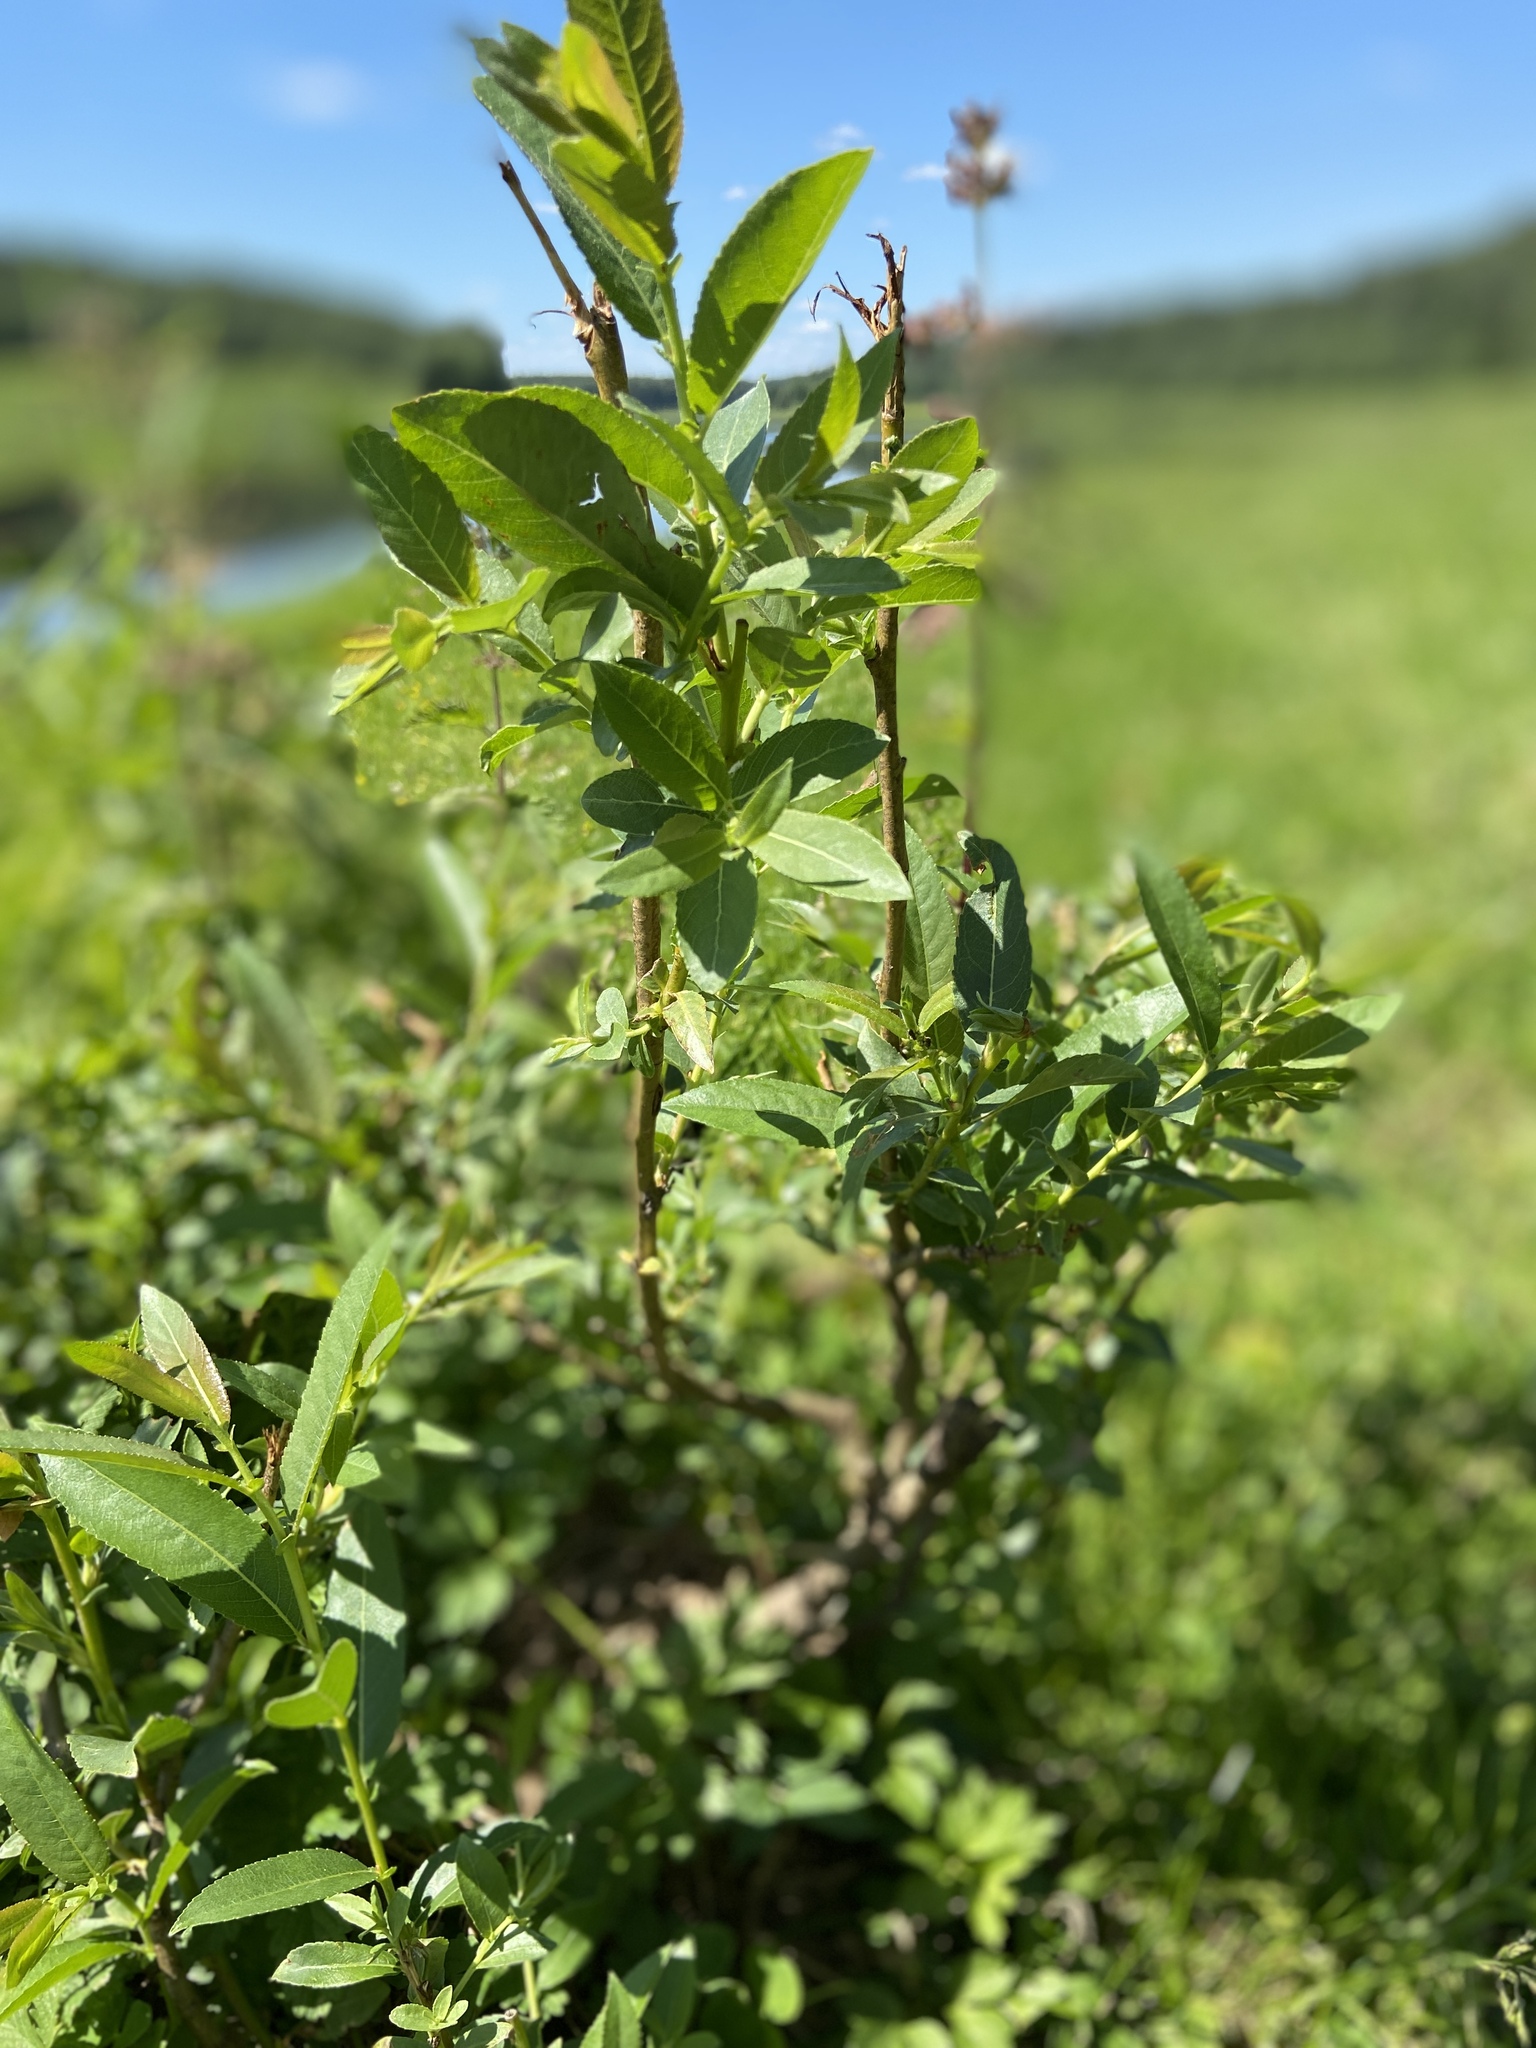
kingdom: Plantae
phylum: Tracheophyta
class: Magnoliopsida
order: Malpighiales
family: Salicaceae
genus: Salix
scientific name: Salix triandra
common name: Almond willow
